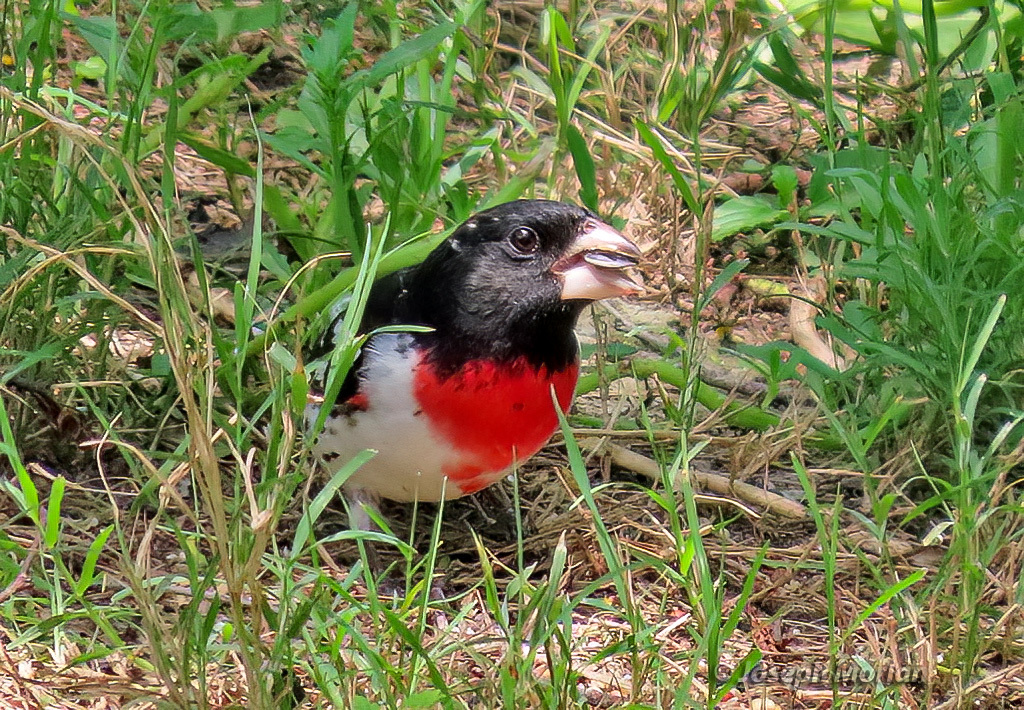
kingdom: Animalia
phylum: Chordata
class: Aves
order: Passeriformes
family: Cardinalidae
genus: Pheucticus
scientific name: Pheucticus ludovicianus
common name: Rose-breasted grosbeak
